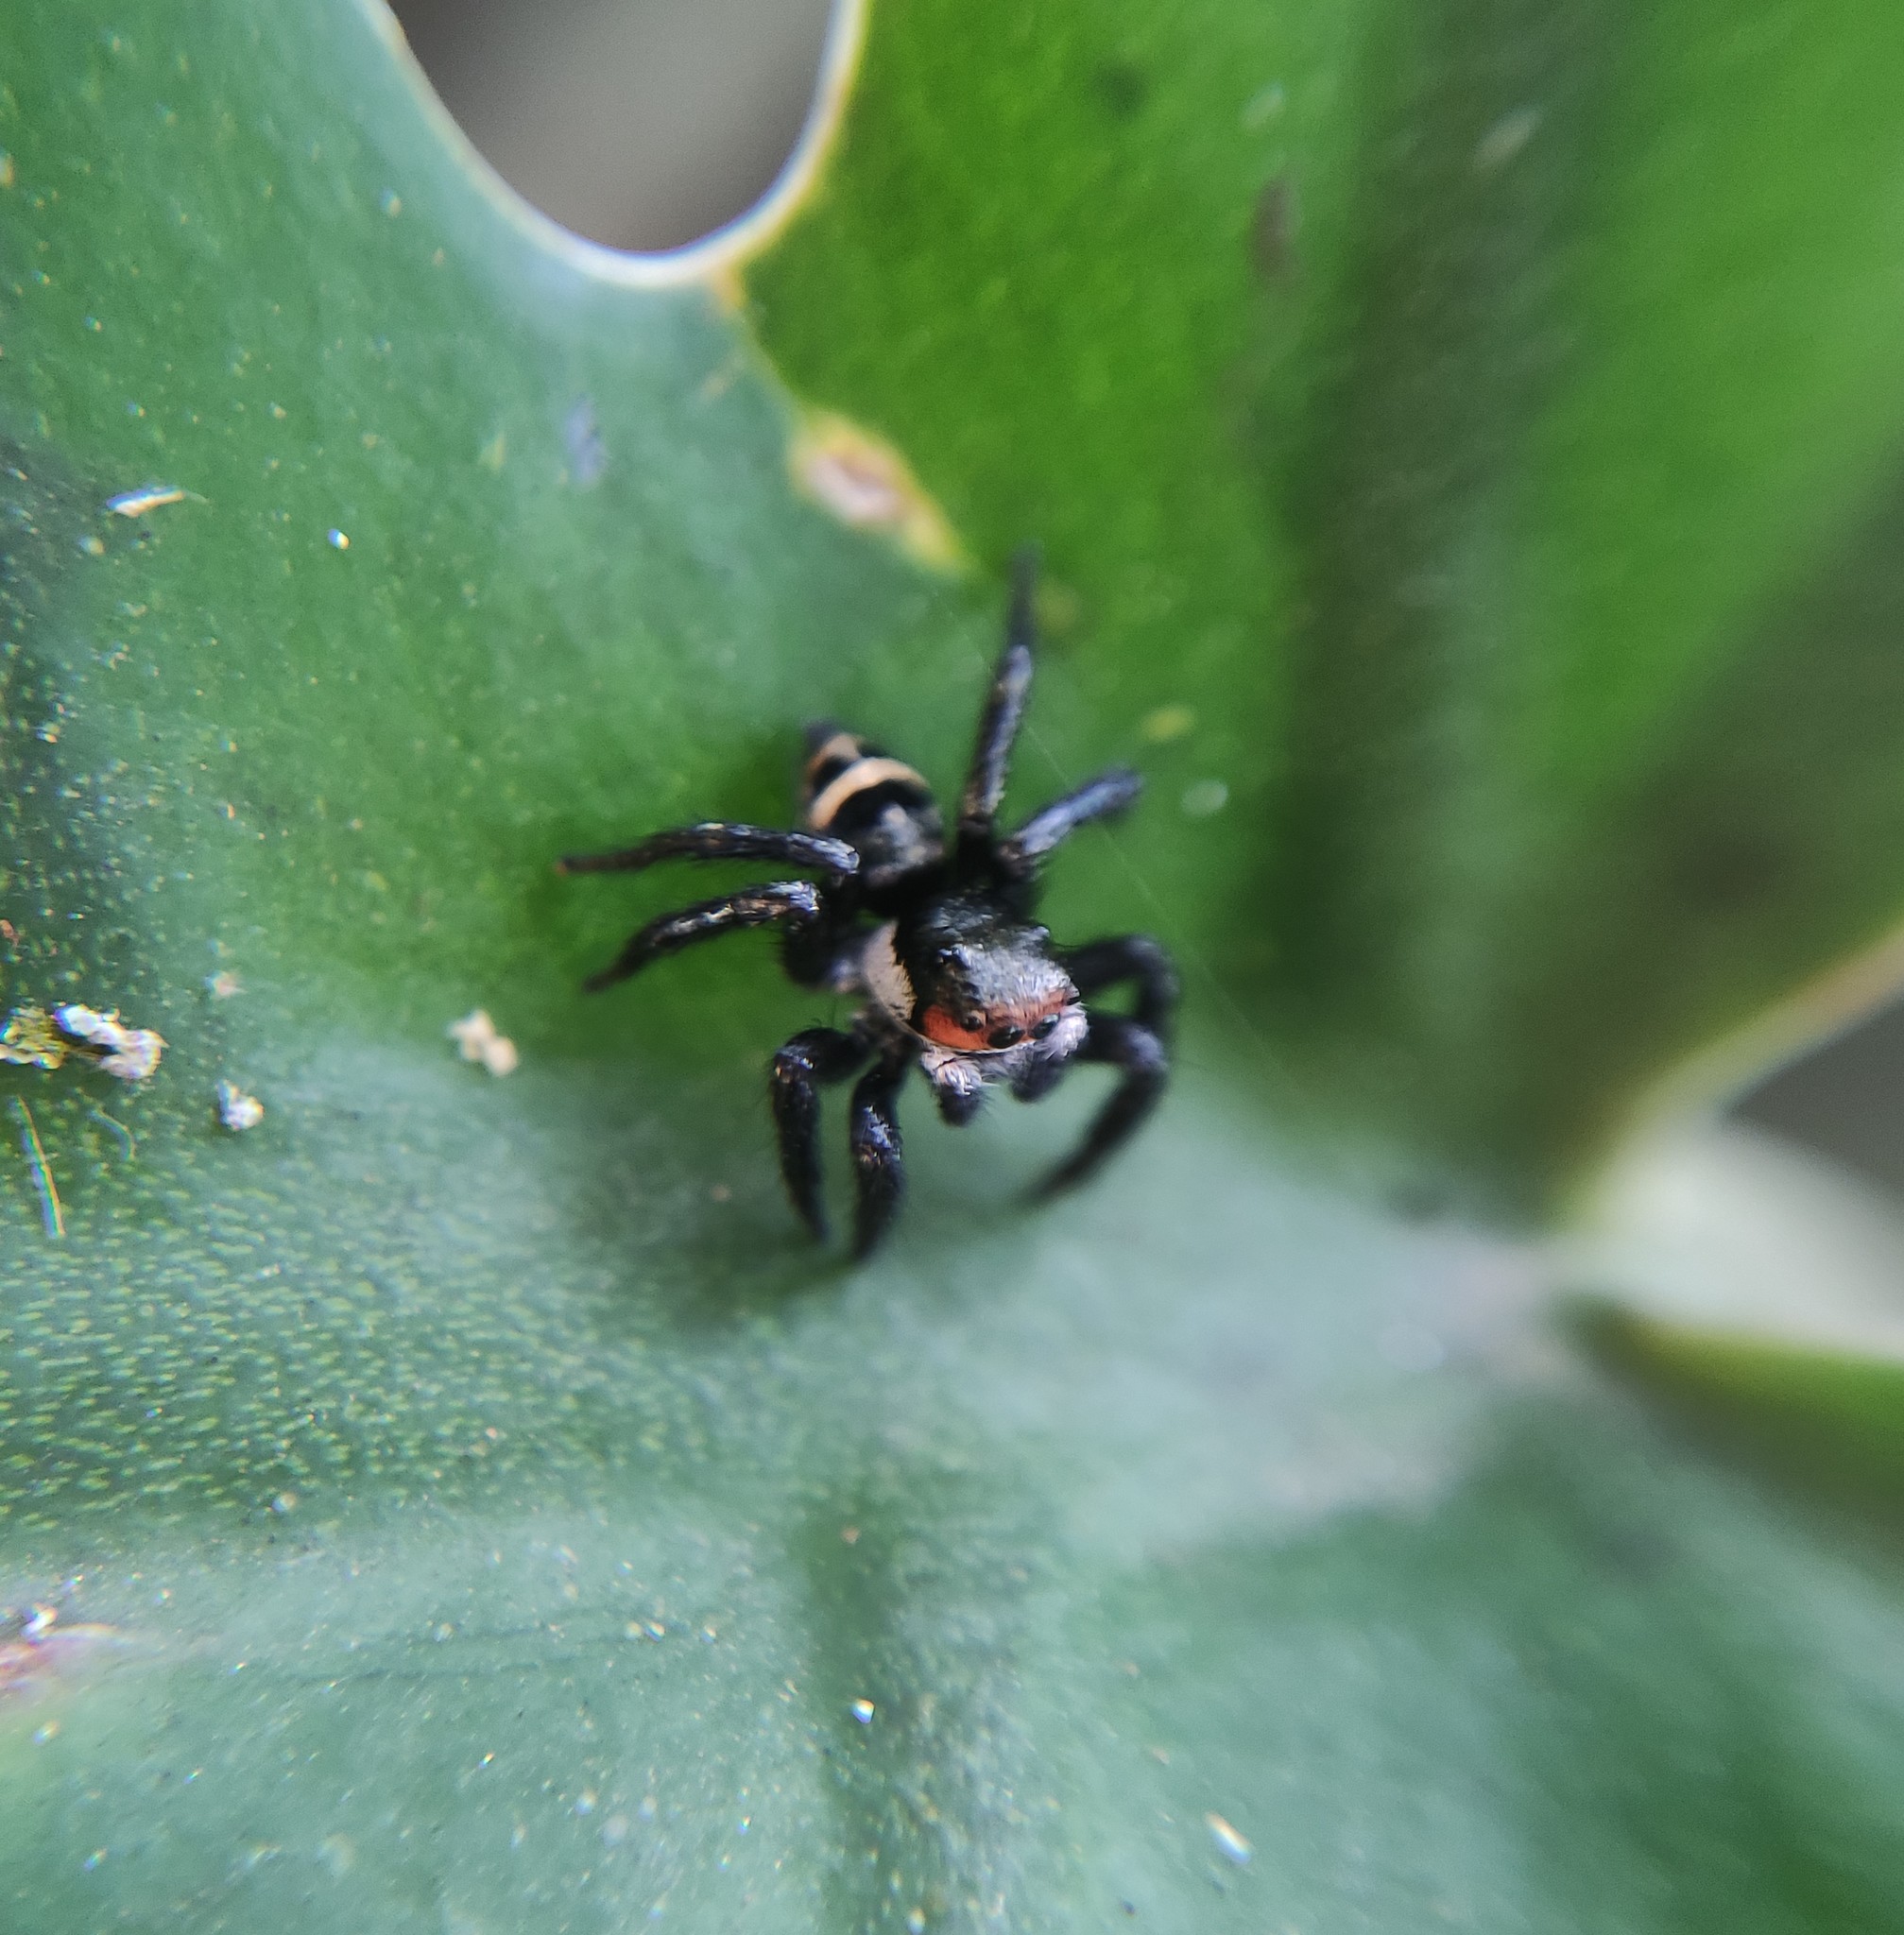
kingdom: Animalia
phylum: Arthropoda
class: Arachnida
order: Araneae
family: Salticidae
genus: Corythalia
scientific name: Corythalia latipes
